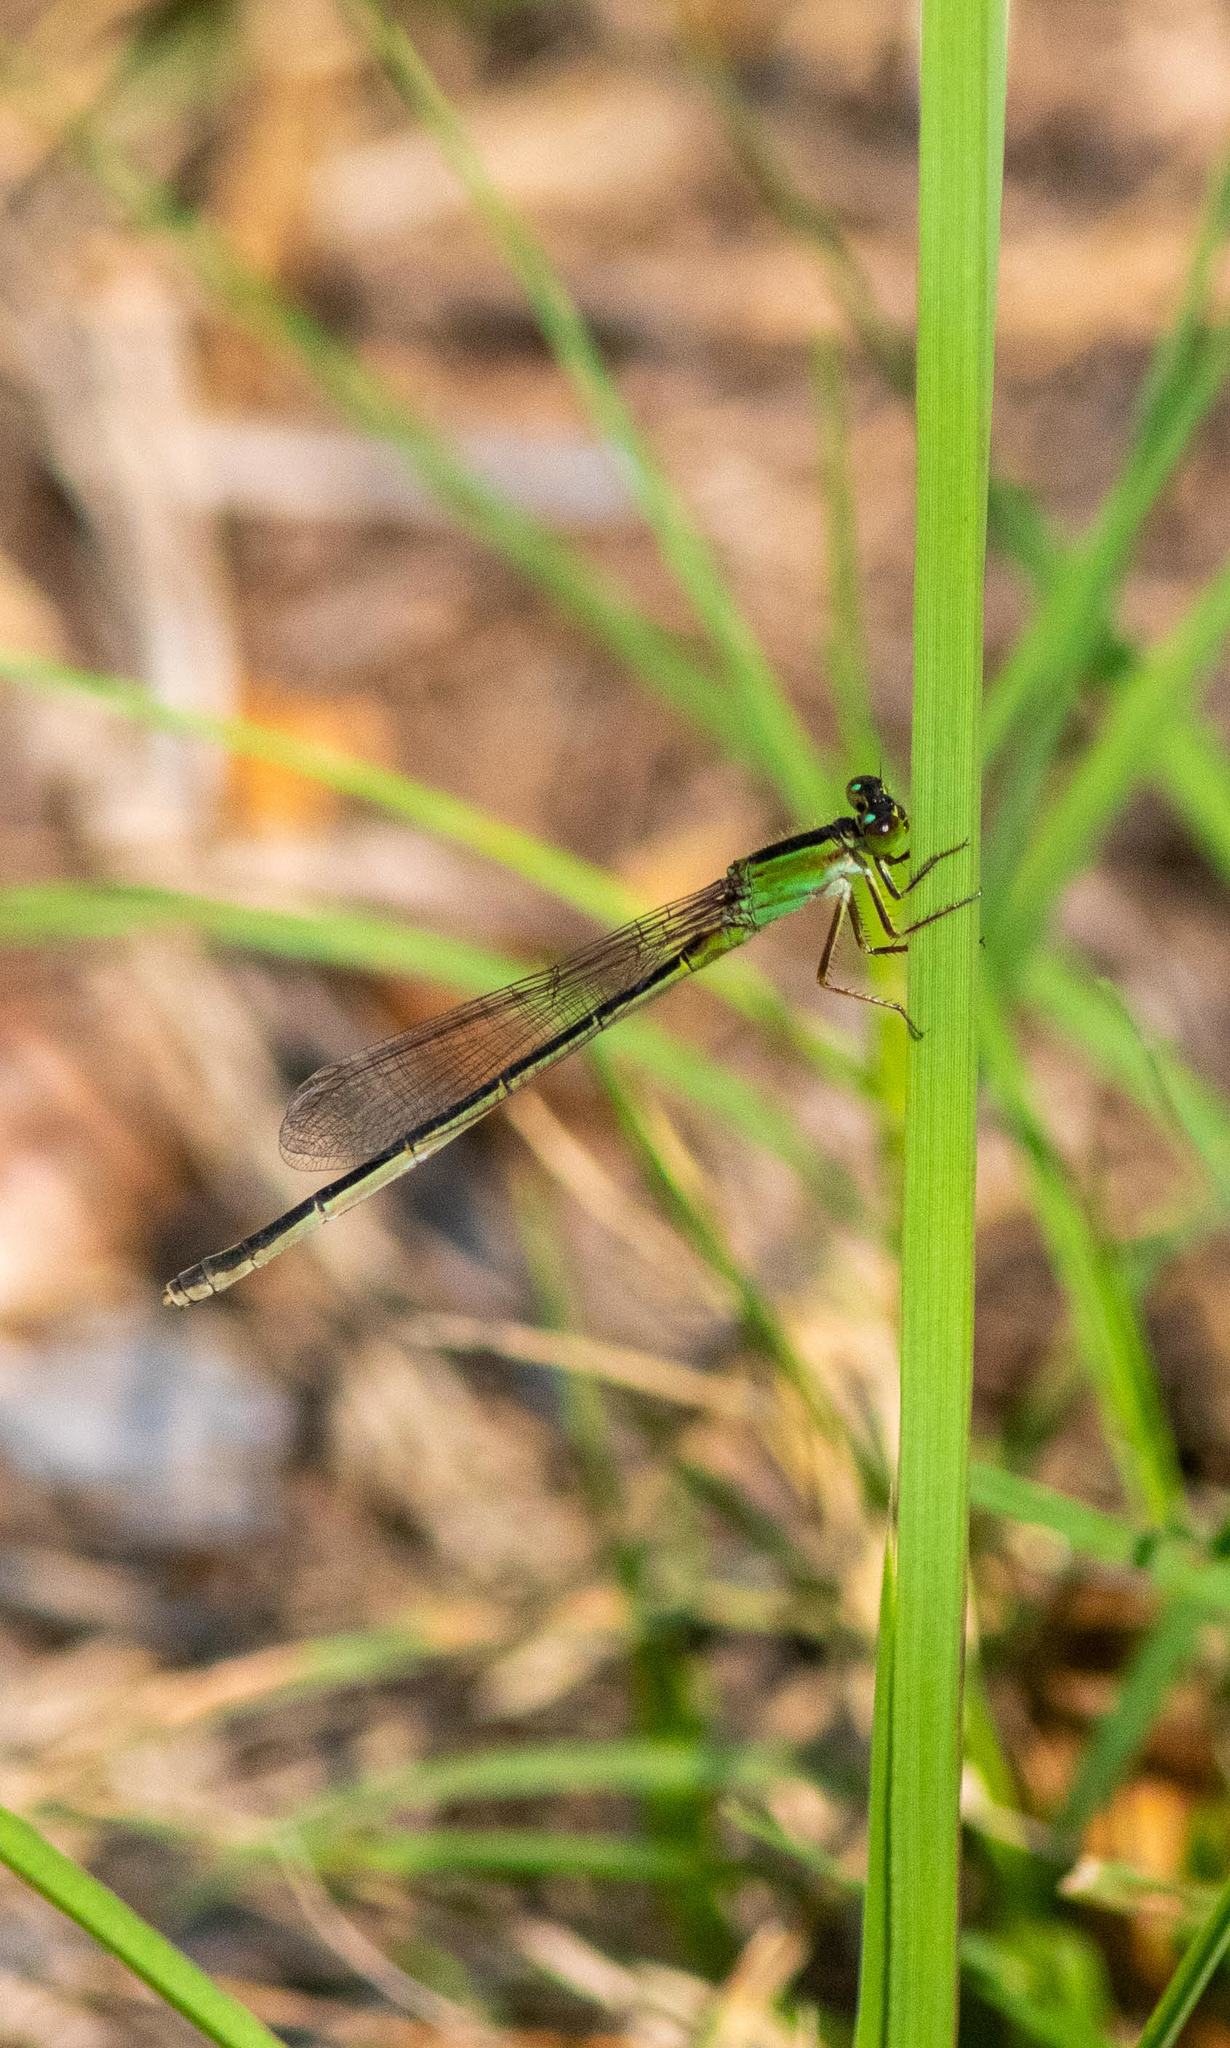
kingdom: Animalia
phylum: Arthropoda
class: Insecta
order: Odonata
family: Coenagrionidae
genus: Ischnura
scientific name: Ischnura ramburii
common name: Rambur's forktail
